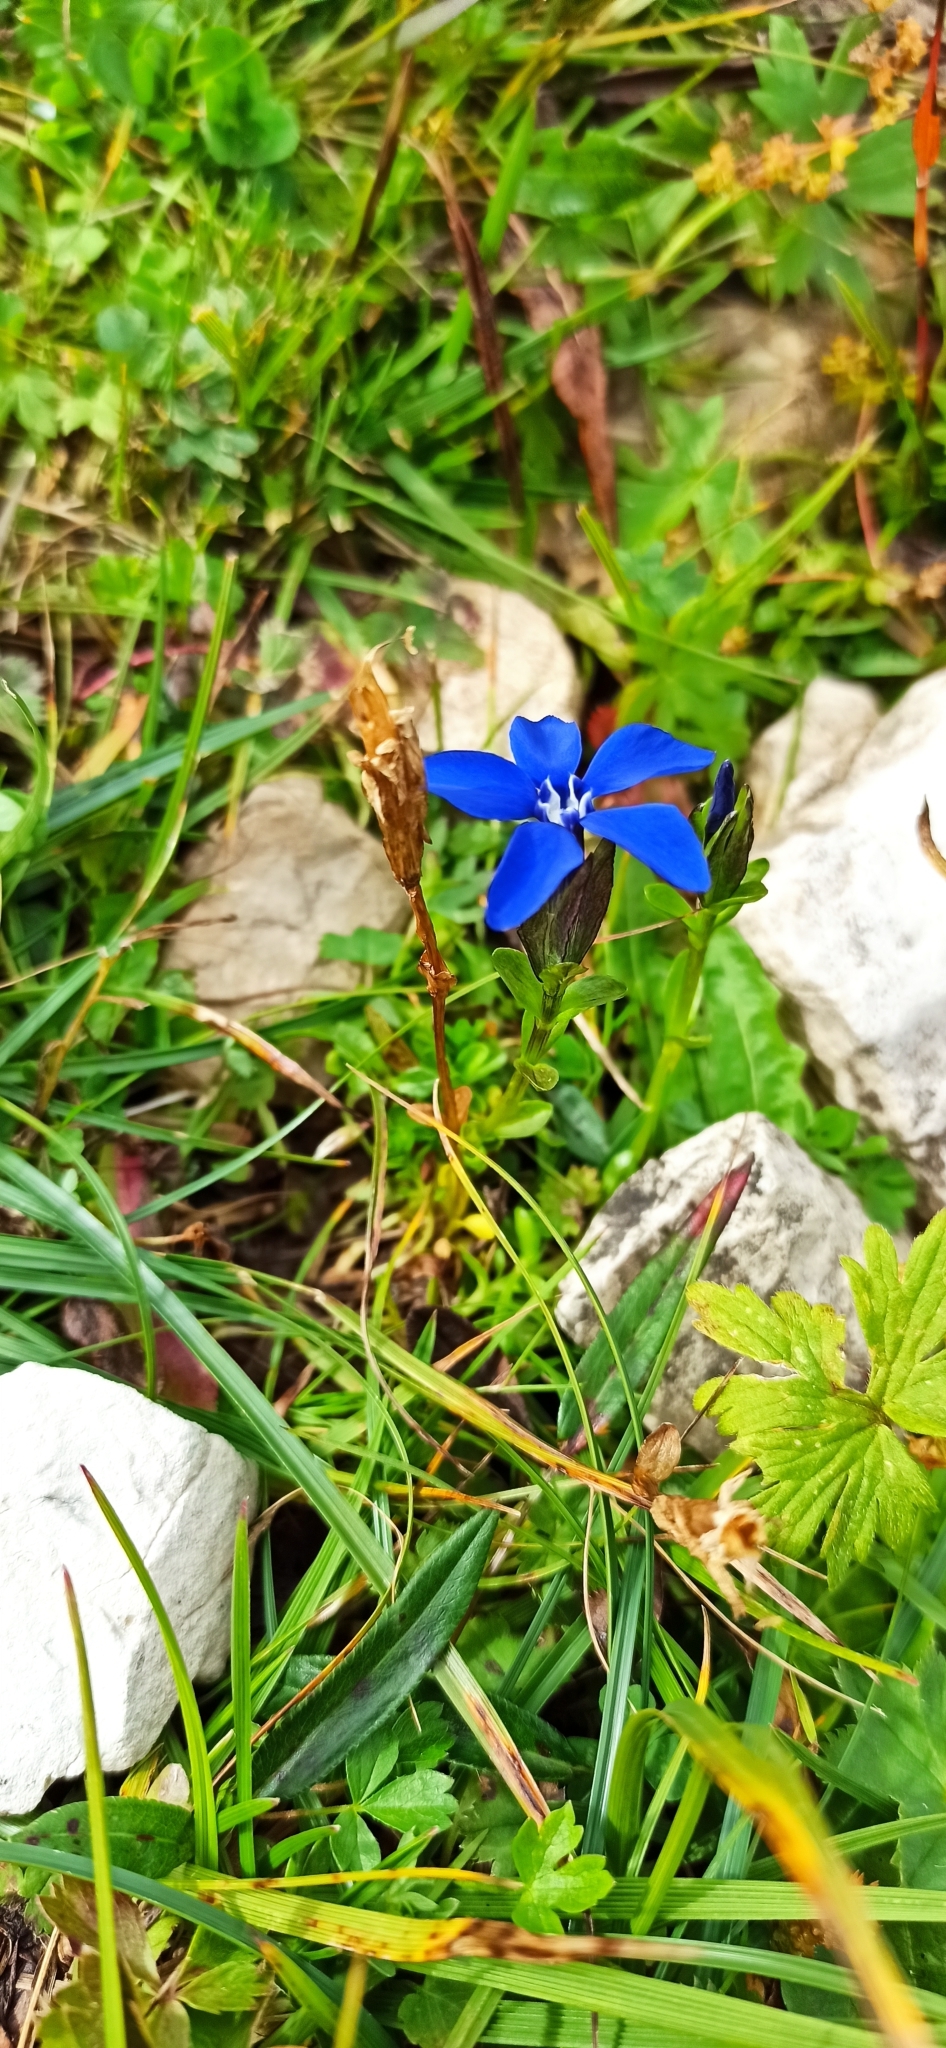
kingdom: Plantae
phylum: Tracheophyta
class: Magnoliopsida
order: Gentianales
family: Gentianaceae
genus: Gentiana
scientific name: Gentiana bavarica
